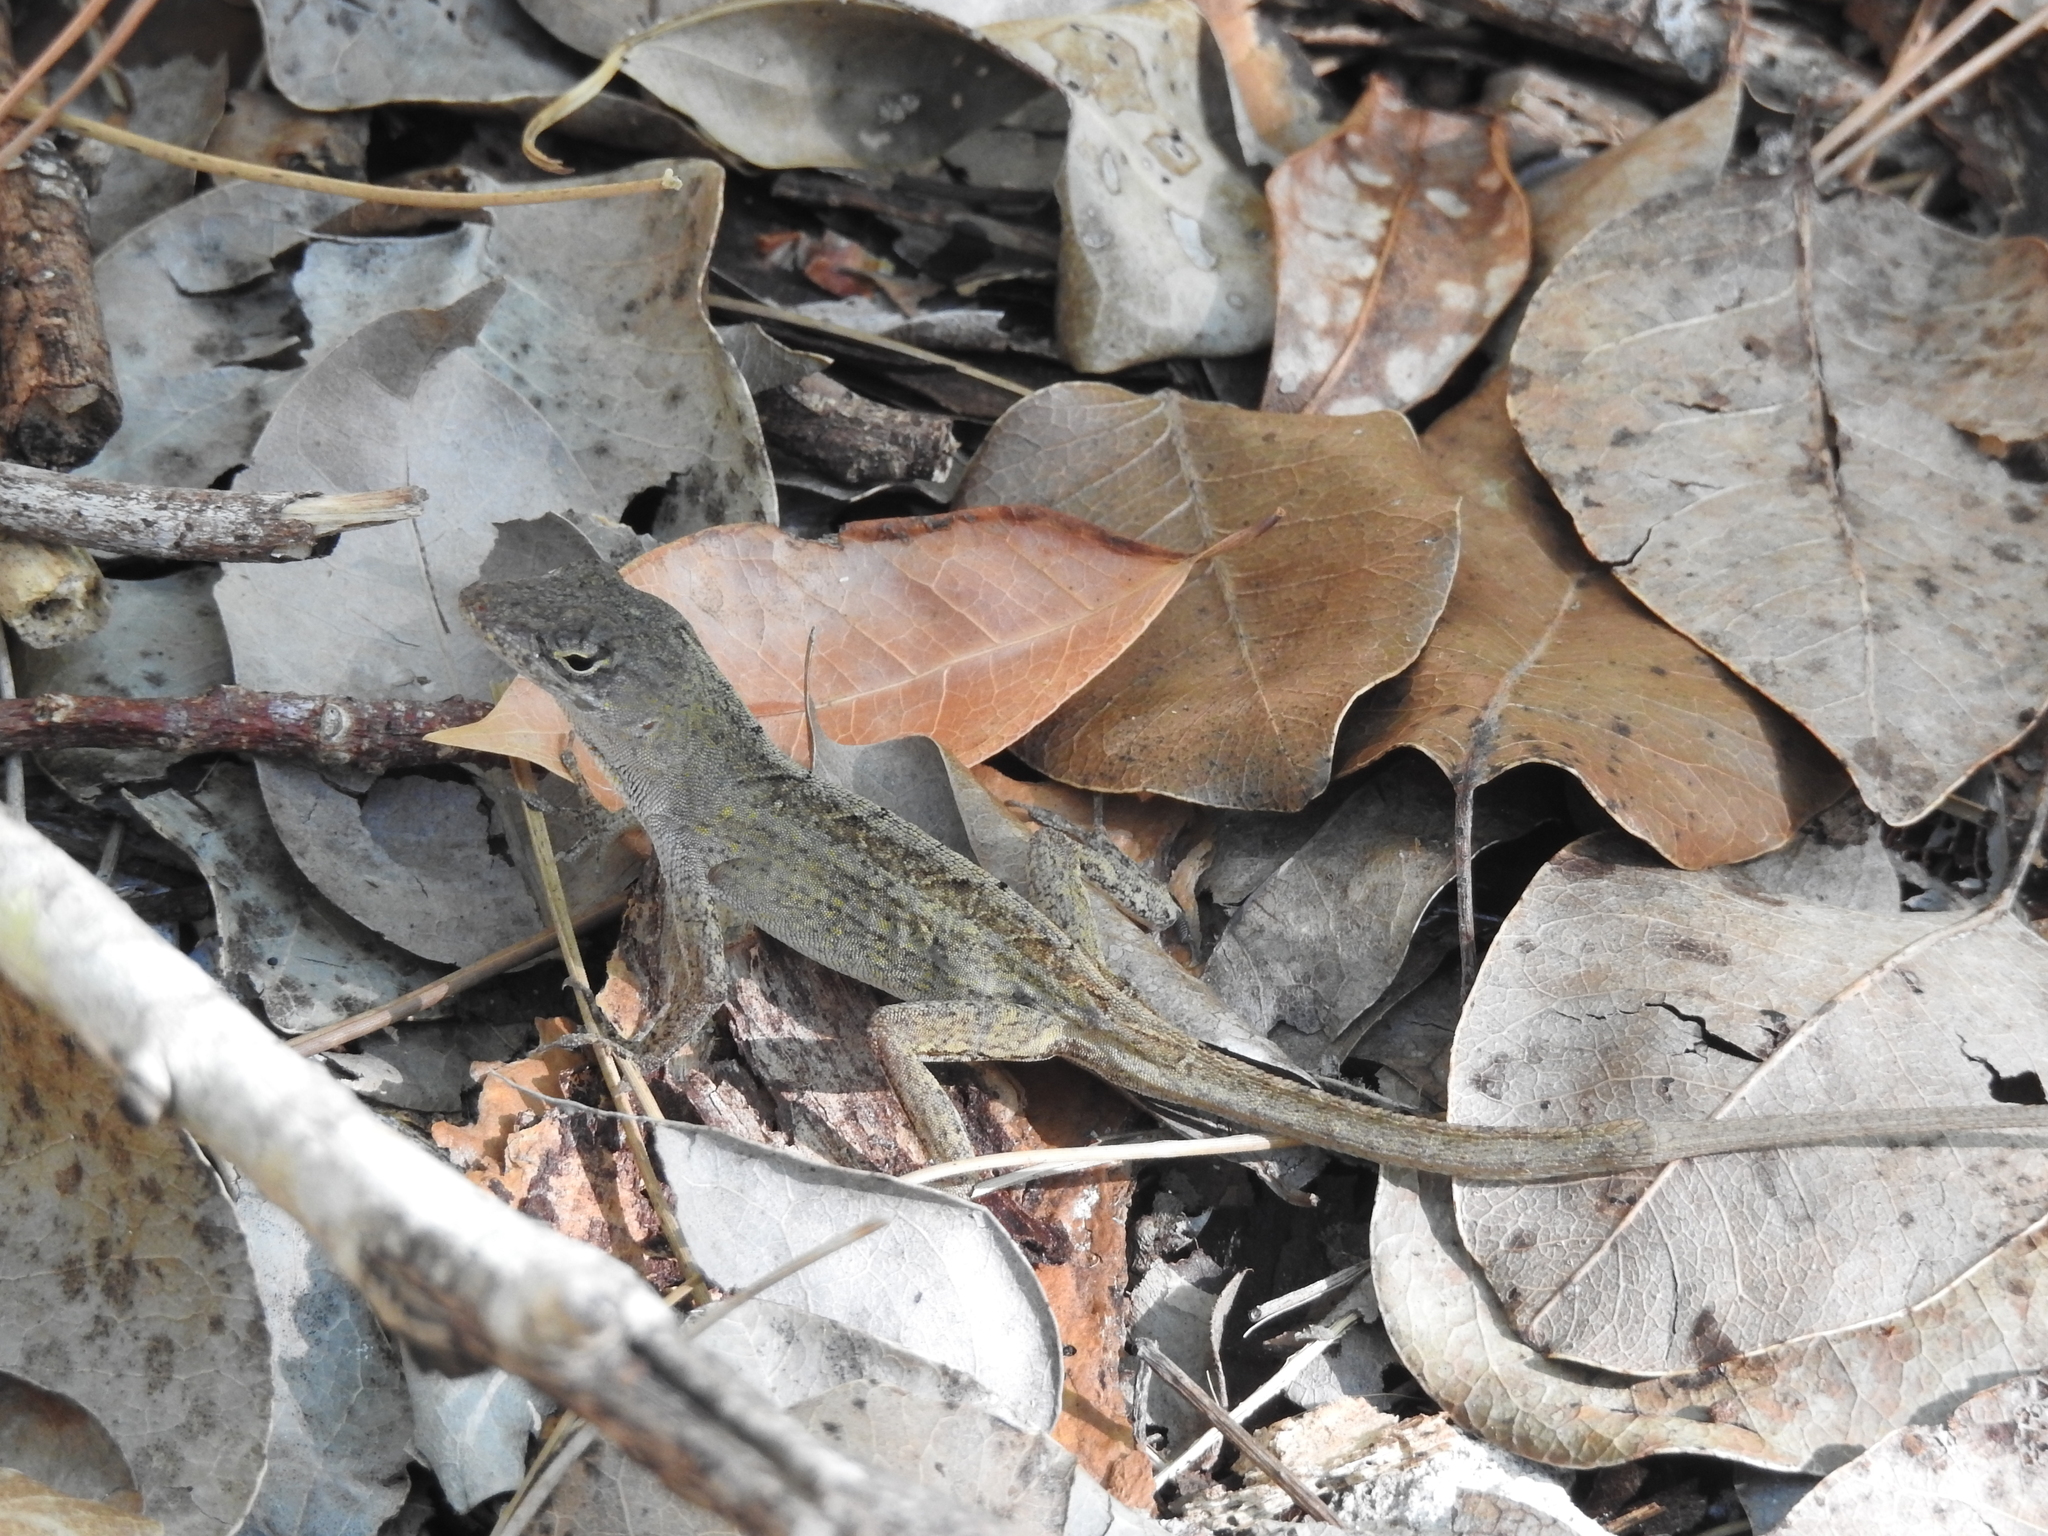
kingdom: Animalia
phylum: Chordata
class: Squamata
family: Dactyloidae
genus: Anolis
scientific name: Anolis sagrei
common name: Brown anole
